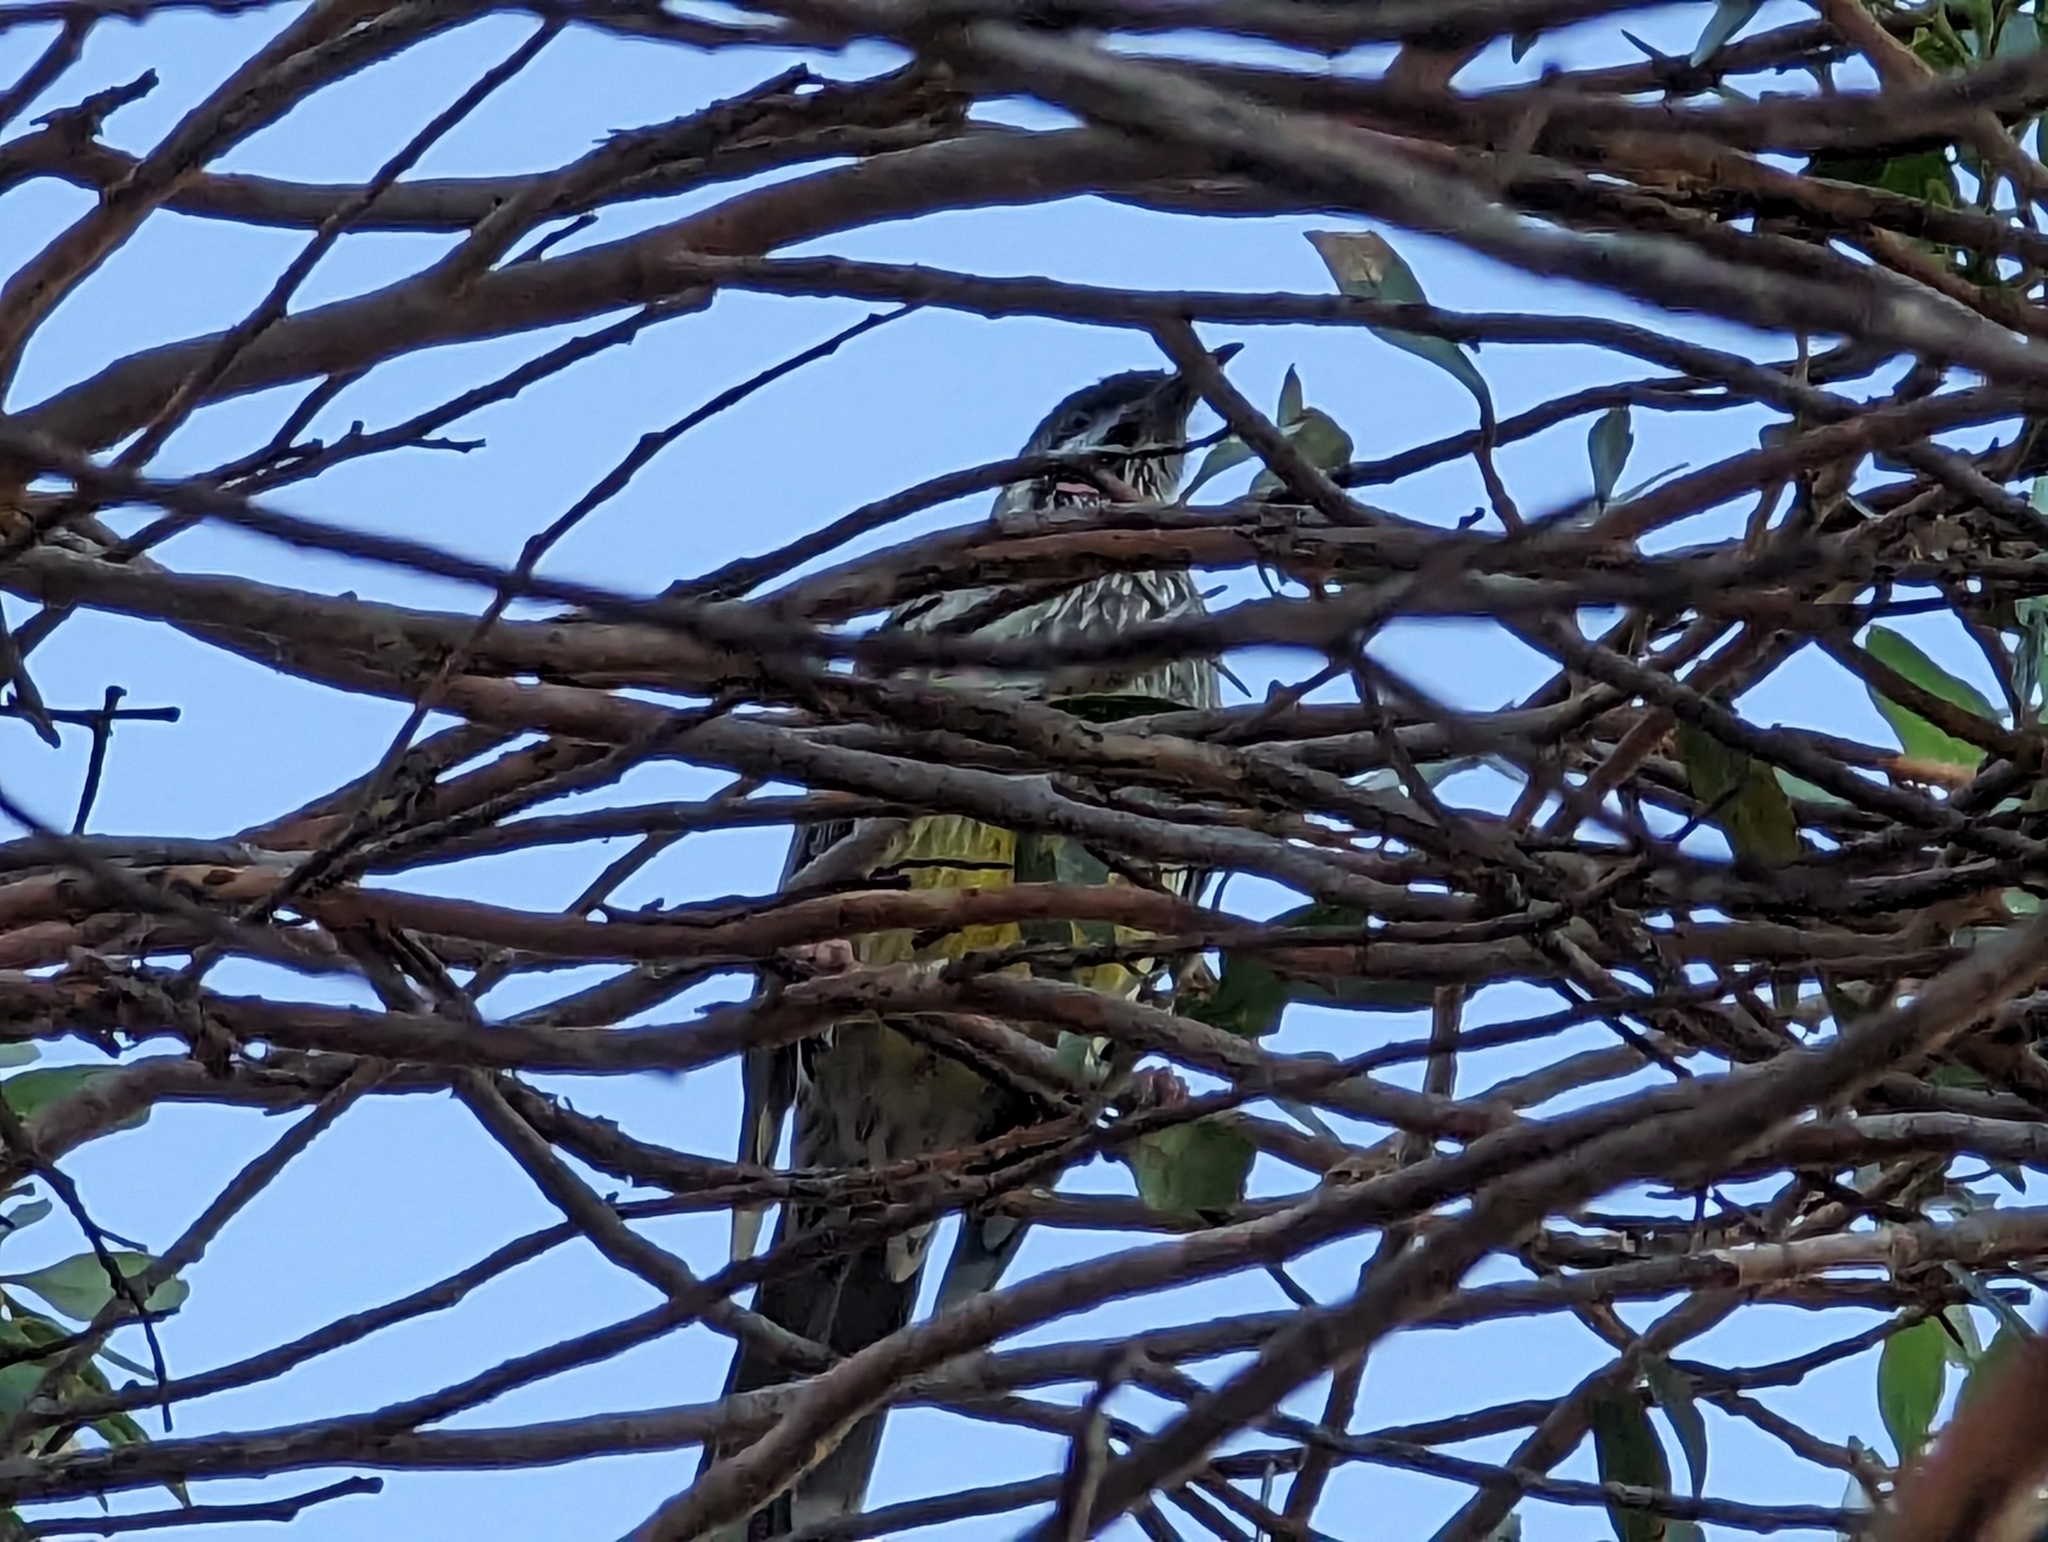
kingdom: Animalia
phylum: Chordata
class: Aves
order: Passeriformes
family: Meliphagidae
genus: Anthochaera
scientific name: Anthochaera carunculata
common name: Red wattlebird
